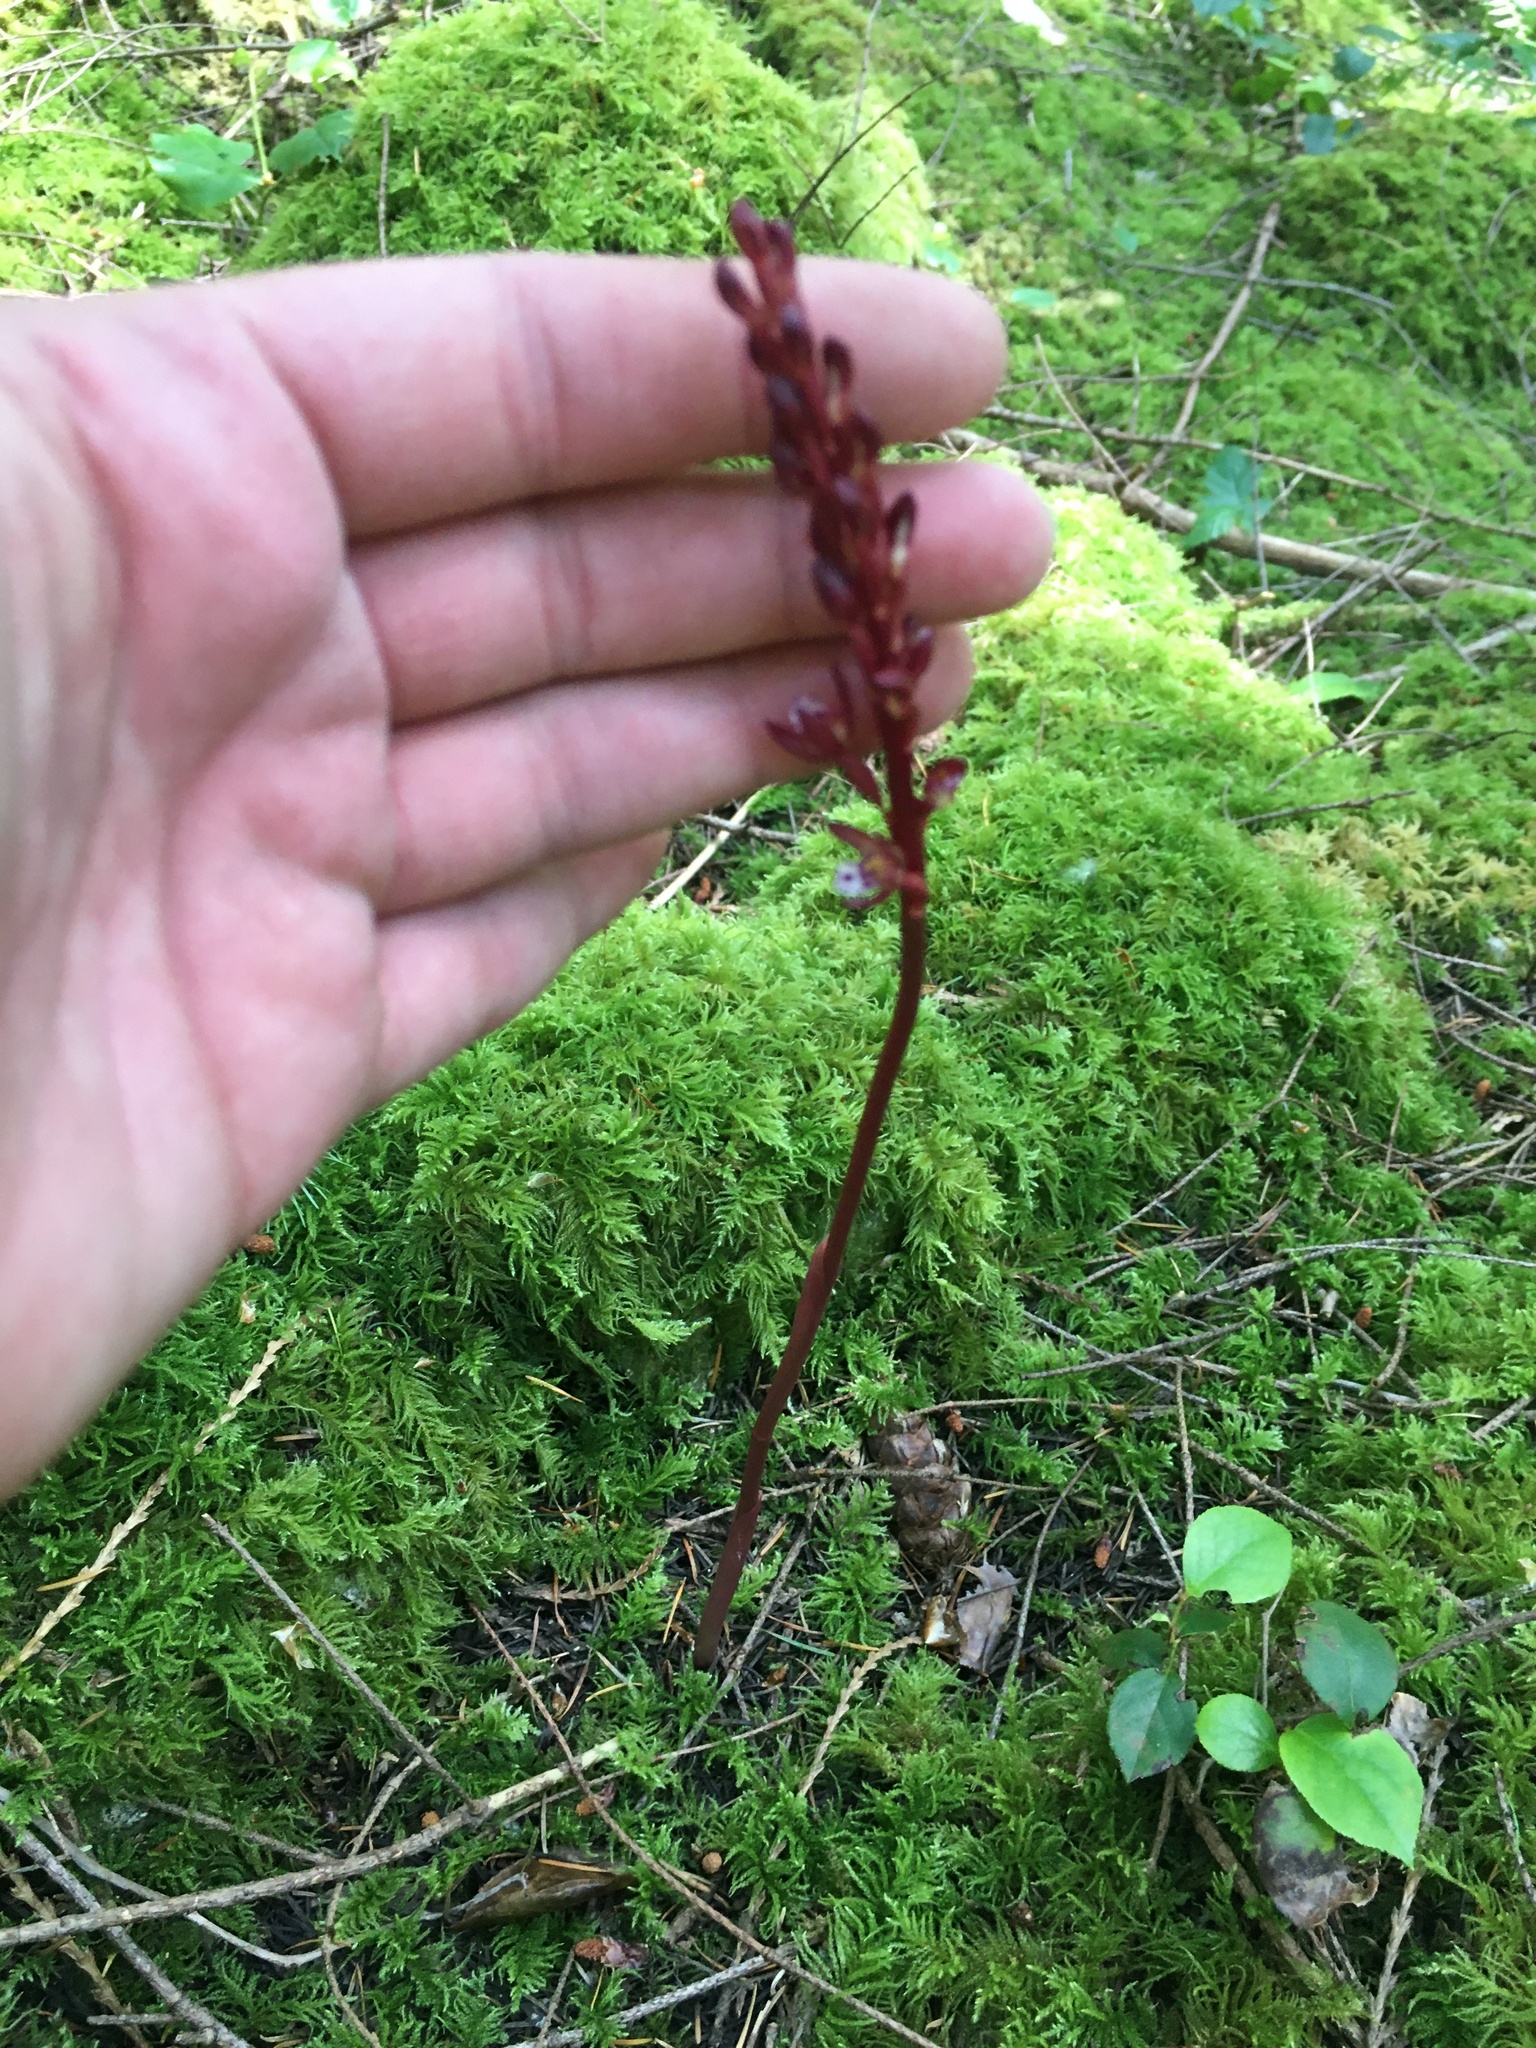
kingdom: Plantae
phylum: Tracheophyta
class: Liliopsida
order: Asparagales
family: Orchidaceae
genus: Corallorhiza
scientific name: Corallorhiza maculata
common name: Spotted coralroot
